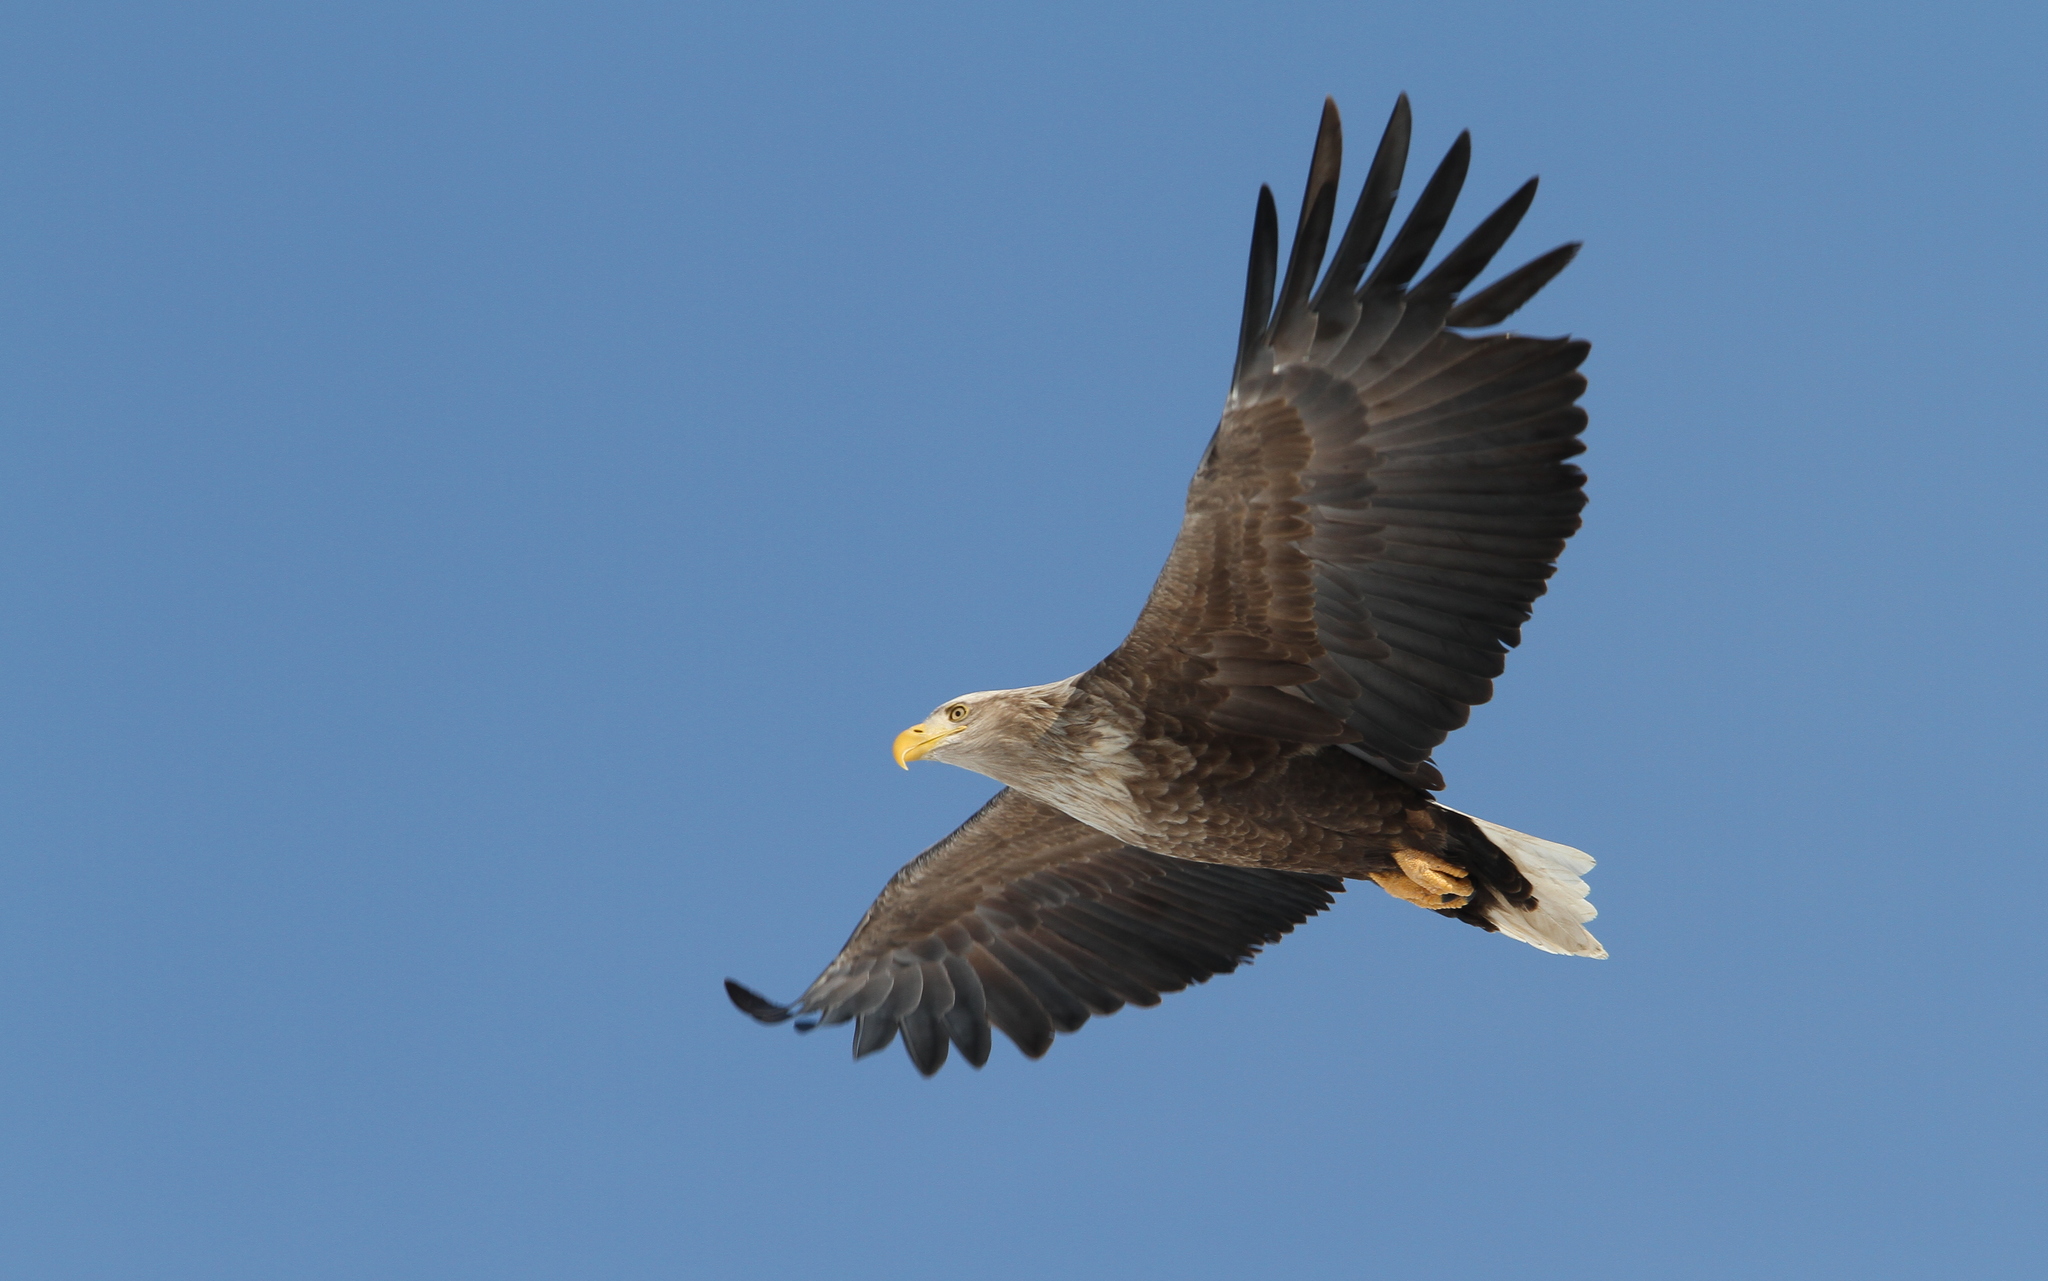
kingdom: Animalia
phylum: Chordata
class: Aves
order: Accipitriformes
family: Accipitridae
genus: Haliaeetus
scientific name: Haliaeetus albicilla
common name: White-tailed eagle
